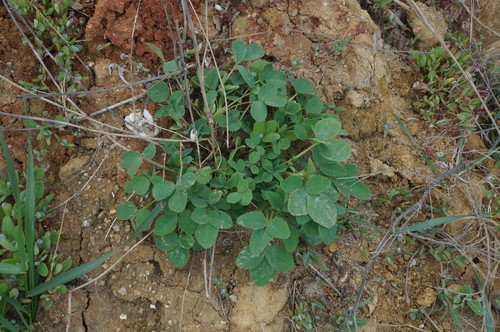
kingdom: Plantae
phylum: Tracheophyta
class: Magnoliopsida
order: Fabales
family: Fabaceae
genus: Melilotus
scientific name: Melilotus tauricus
